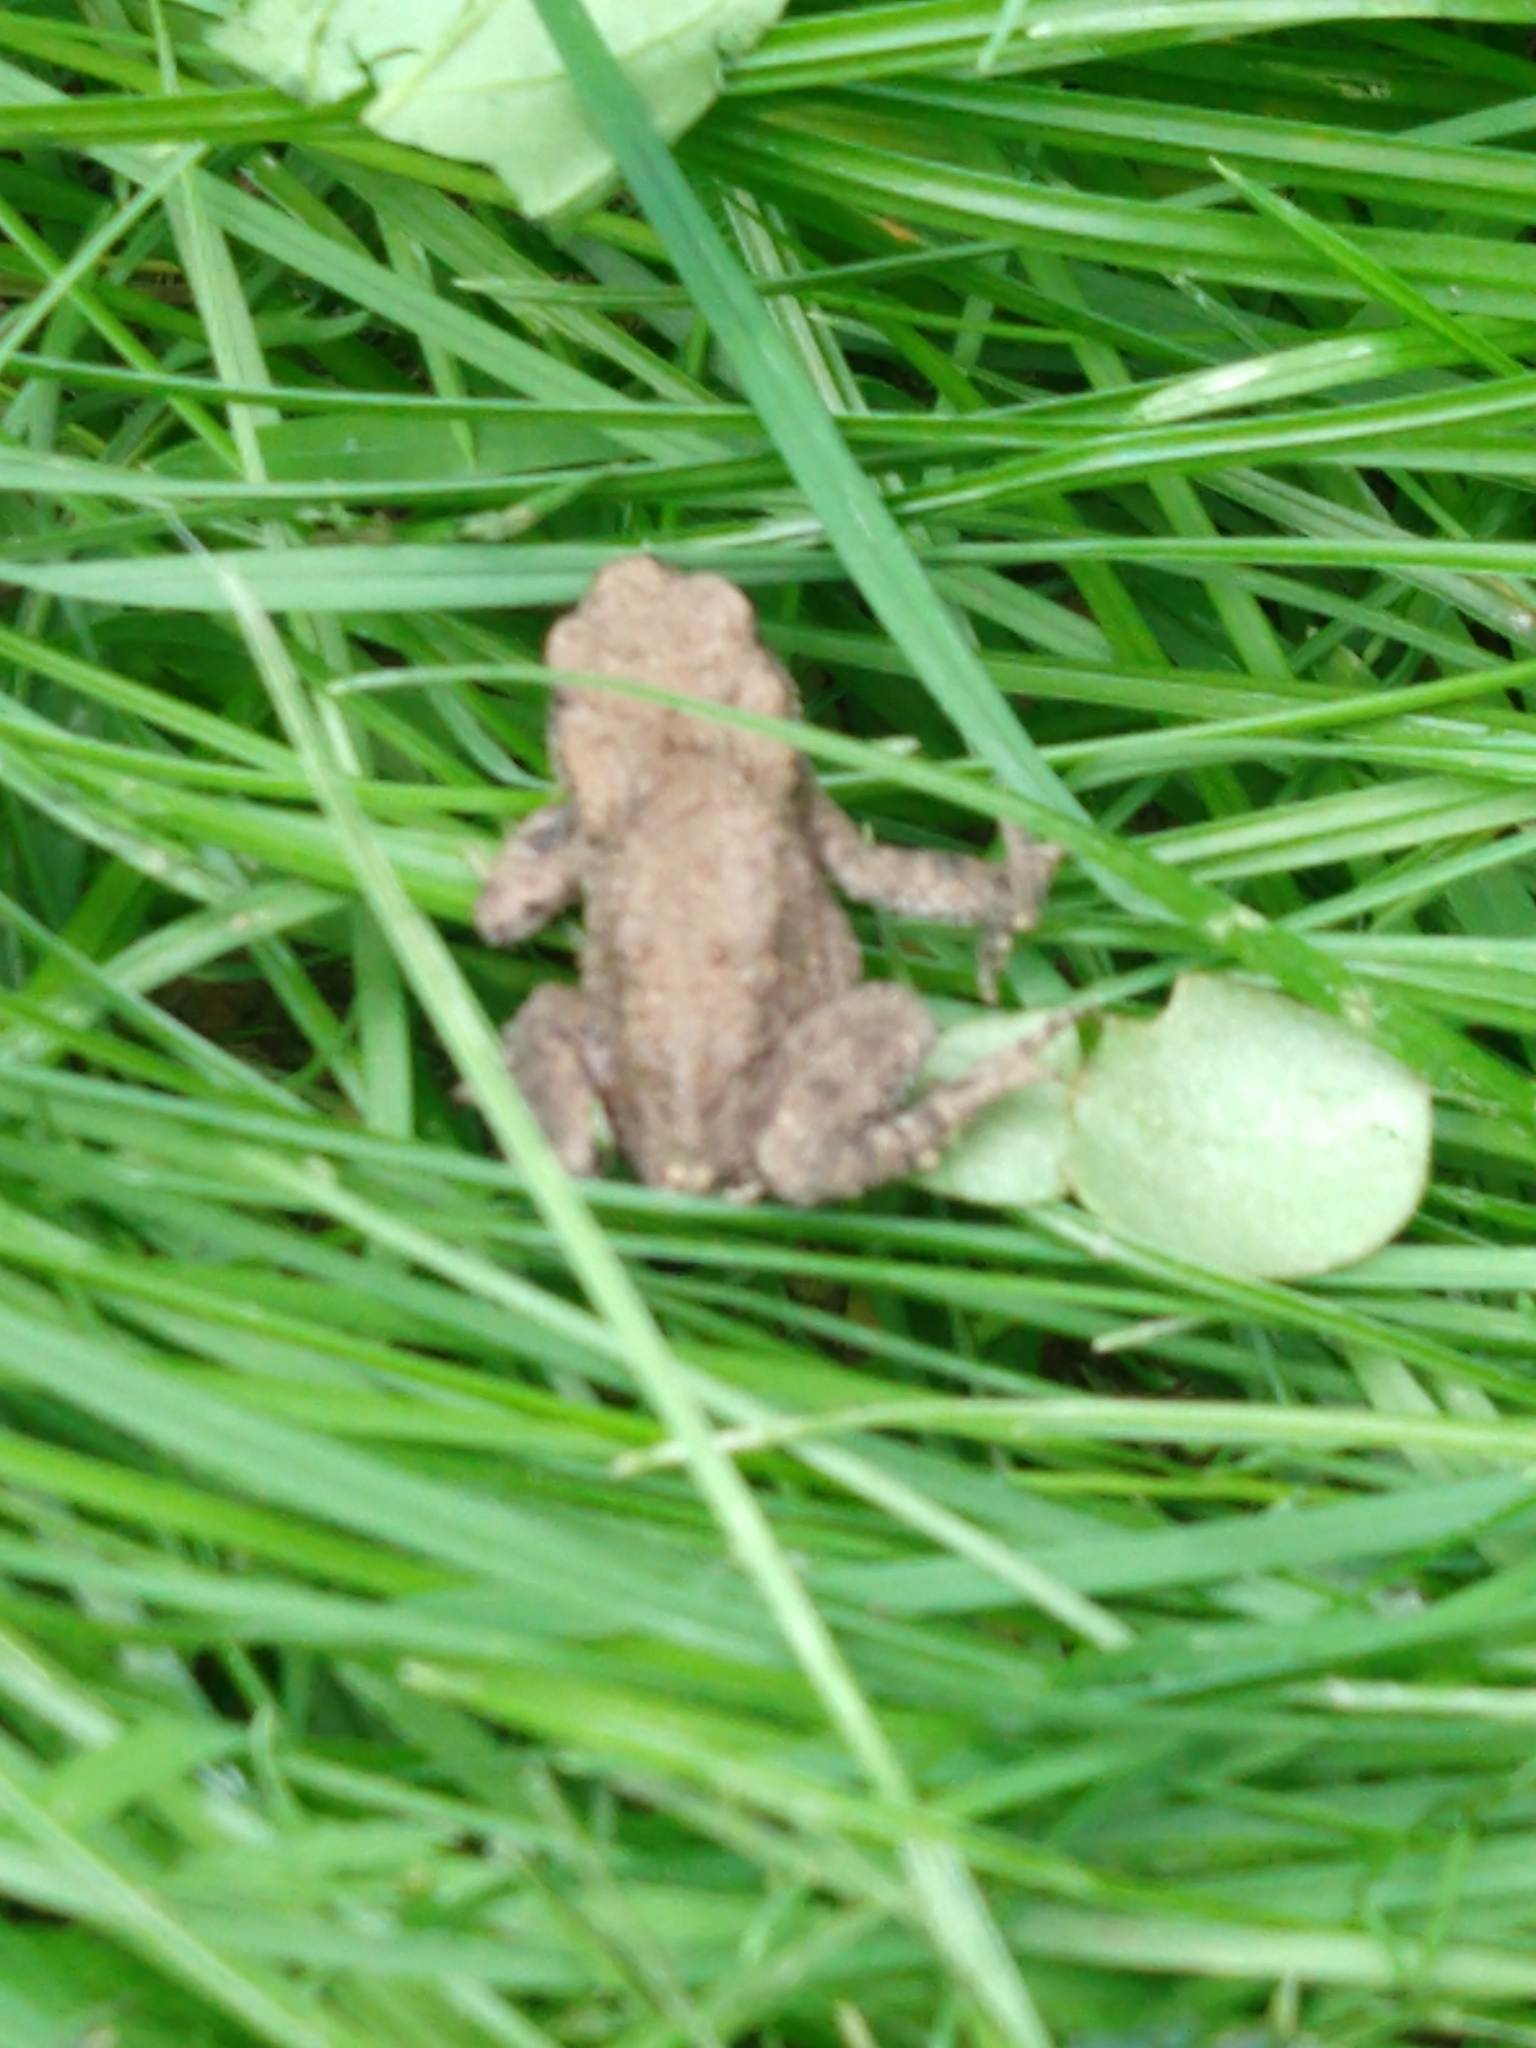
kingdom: Animalia
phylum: Chordata
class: Amphibia
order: Anura
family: Bufonidae
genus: Bufo
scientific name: Bufo bufo
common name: Common toad
